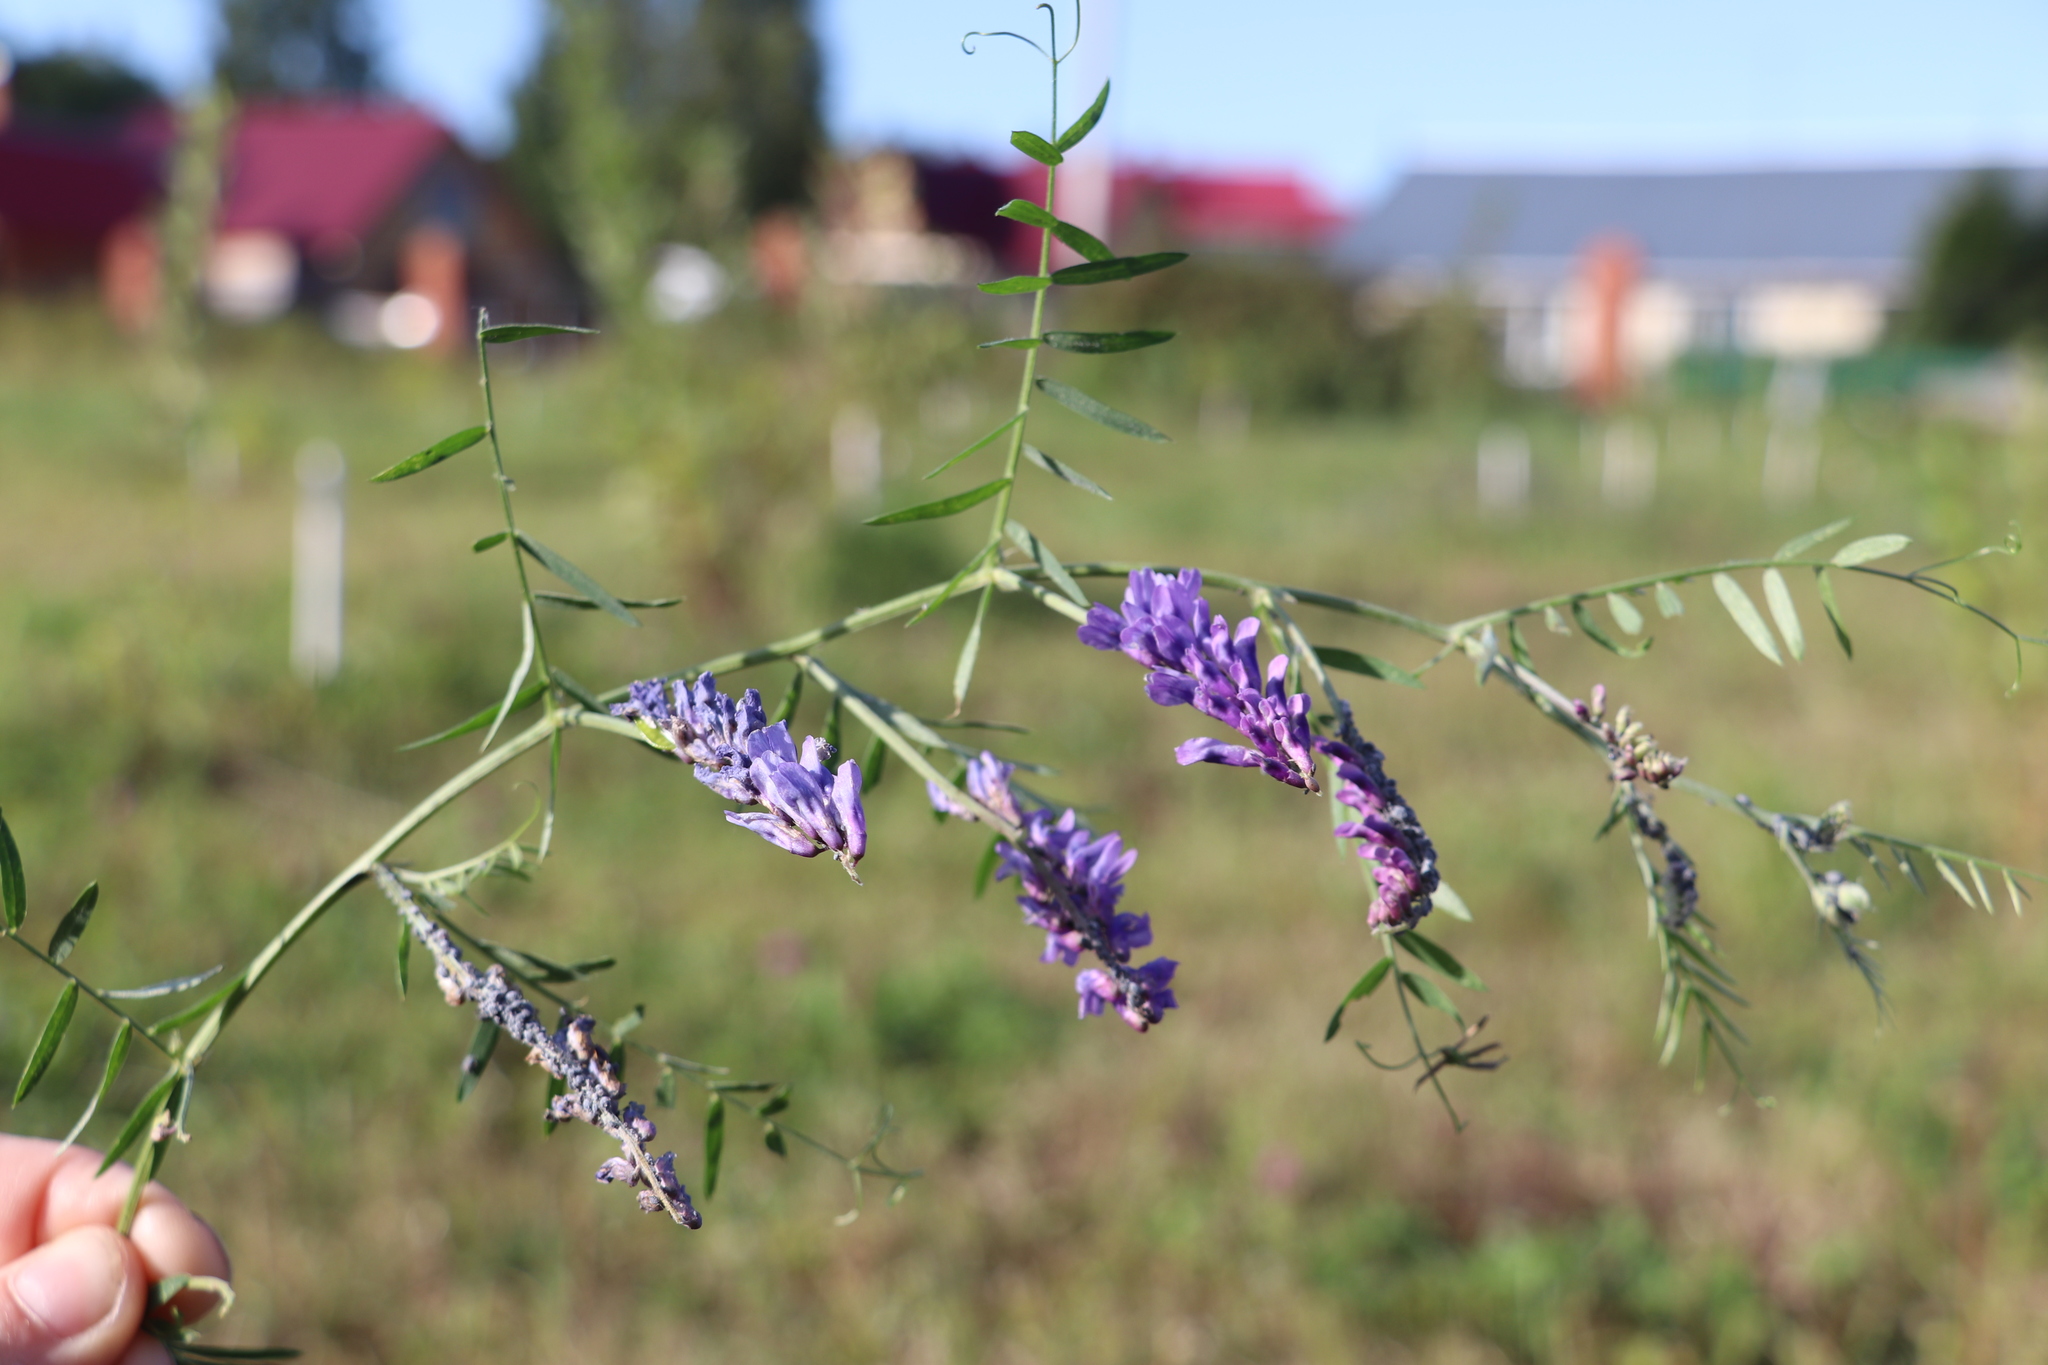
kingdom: Plantae
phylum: Tracheophyta
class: Magnoliopsida
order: Fabales
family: Fabaceae
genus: Vicia
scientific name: Vicia cracca
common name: Bird vetch
